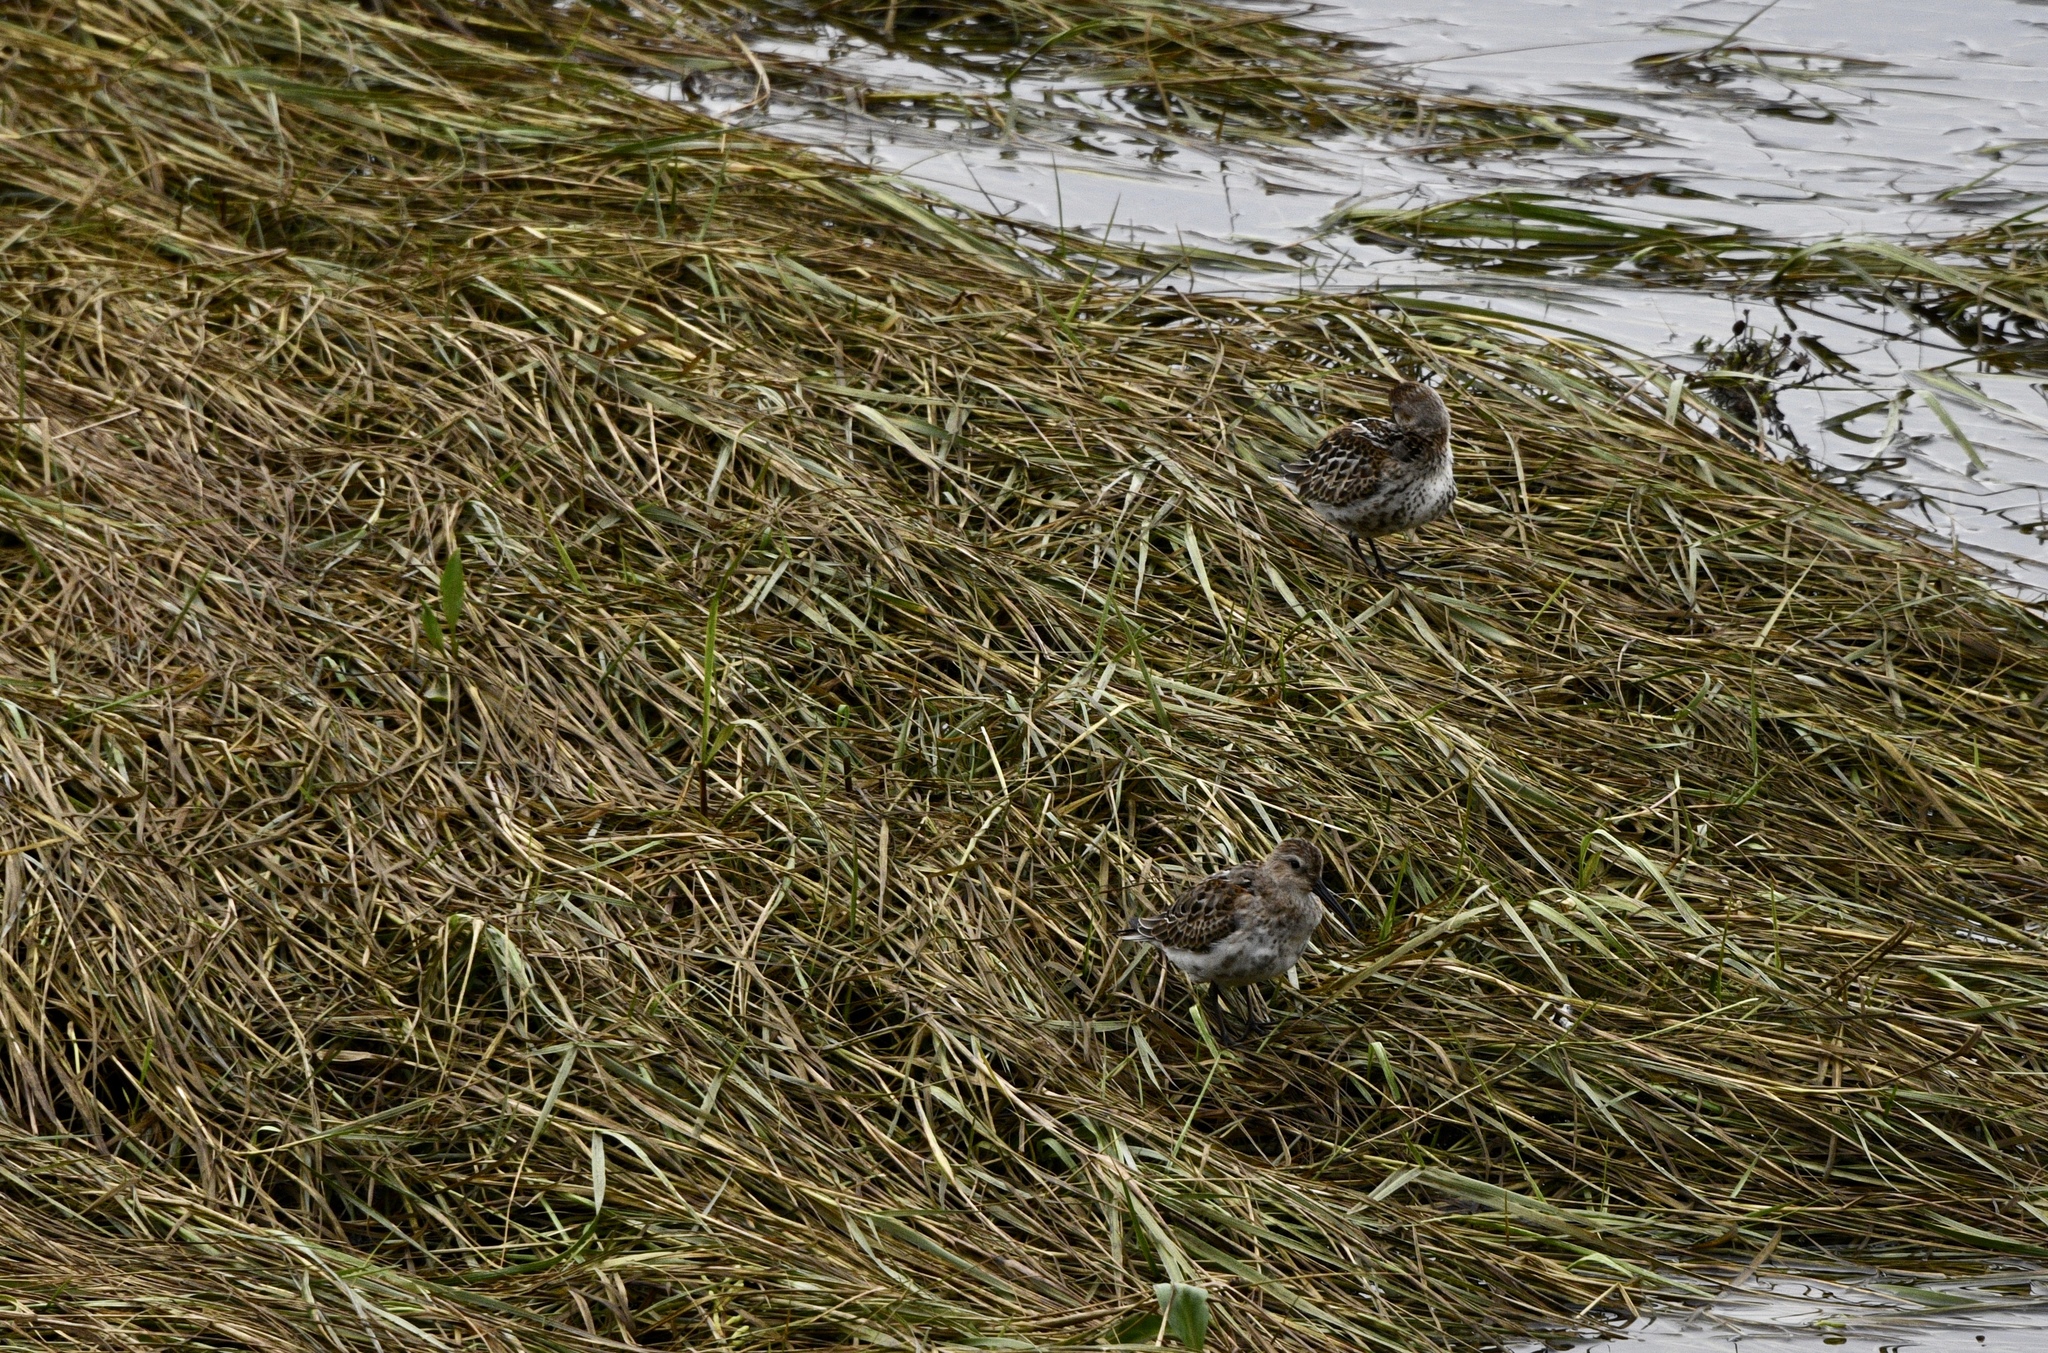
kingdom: Animalia
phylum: Chordata
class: Aves
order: Charadriiformes
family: Scolopacidae
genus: Calidris
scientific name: Calidris alpina
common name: Dunlin
